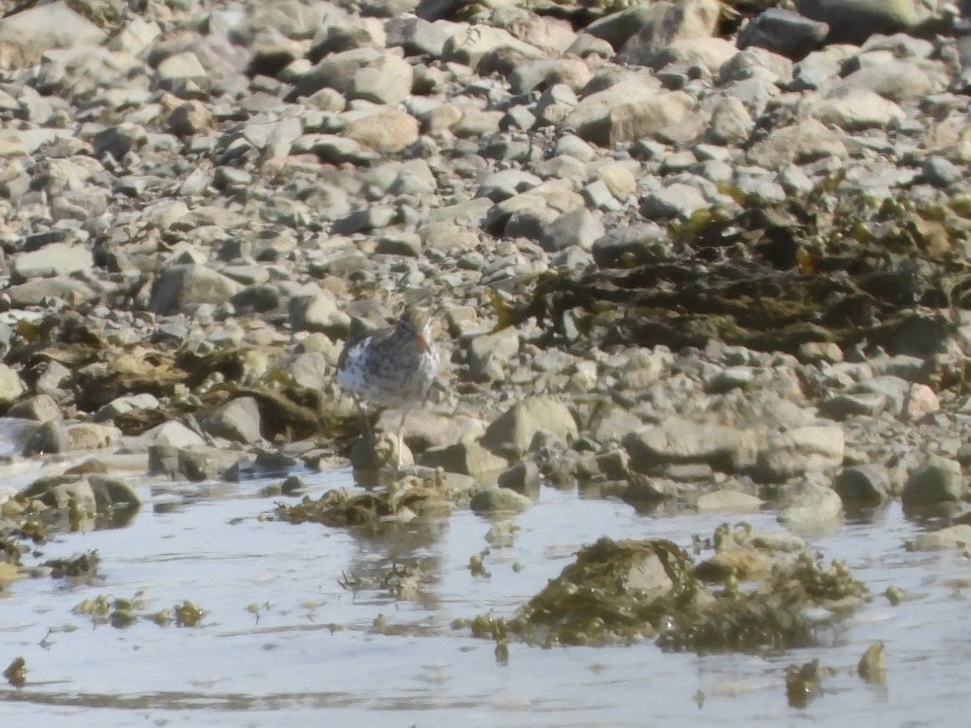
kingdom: Animalia
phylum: Chordata
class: Aves
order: Charadriiformes
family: Scolopacidae
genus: Actitis
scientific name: Actitis macularius
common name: Spotted sandpiper
